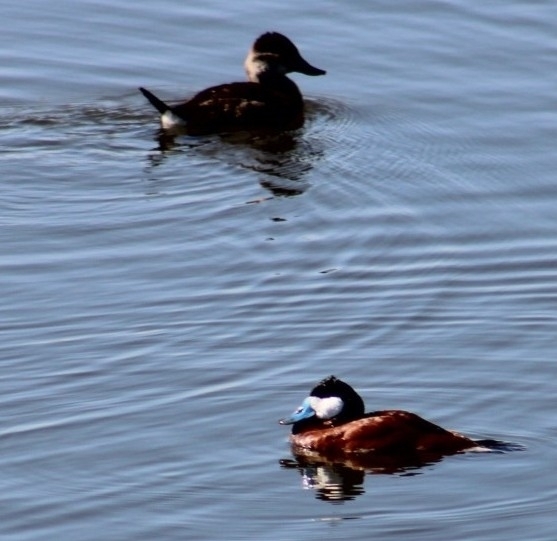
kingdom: Animalia
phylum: Chordata
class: Aves
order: Anseriformes
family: Anatidae
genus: Oxyura
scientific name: Oxyura jamaicensis
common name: Ruddy duck
